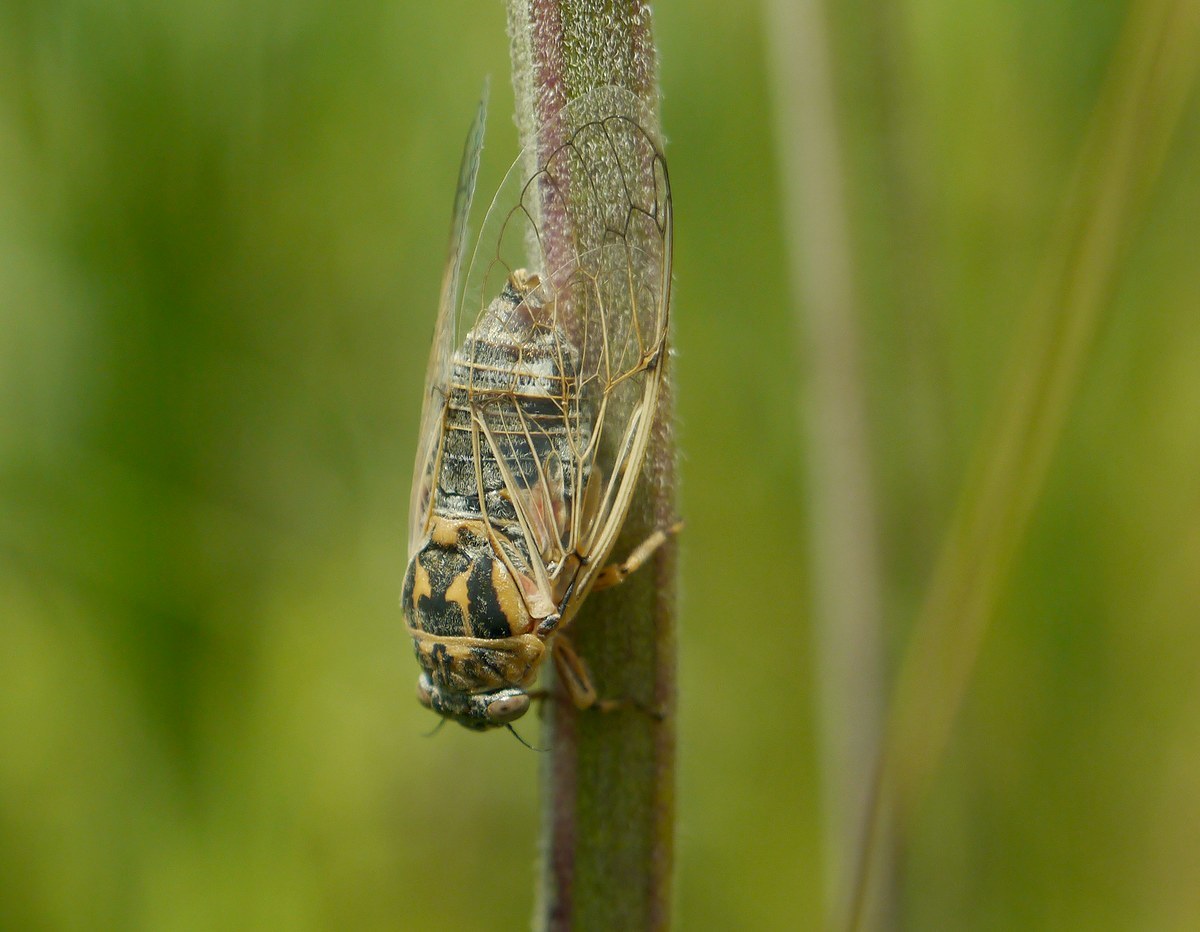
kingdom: Animalia
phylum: Arthropoda
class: Insecta
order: Hemiptera
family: Cicadidae
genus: Cicadatra
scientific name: Cicadatra hyalina
